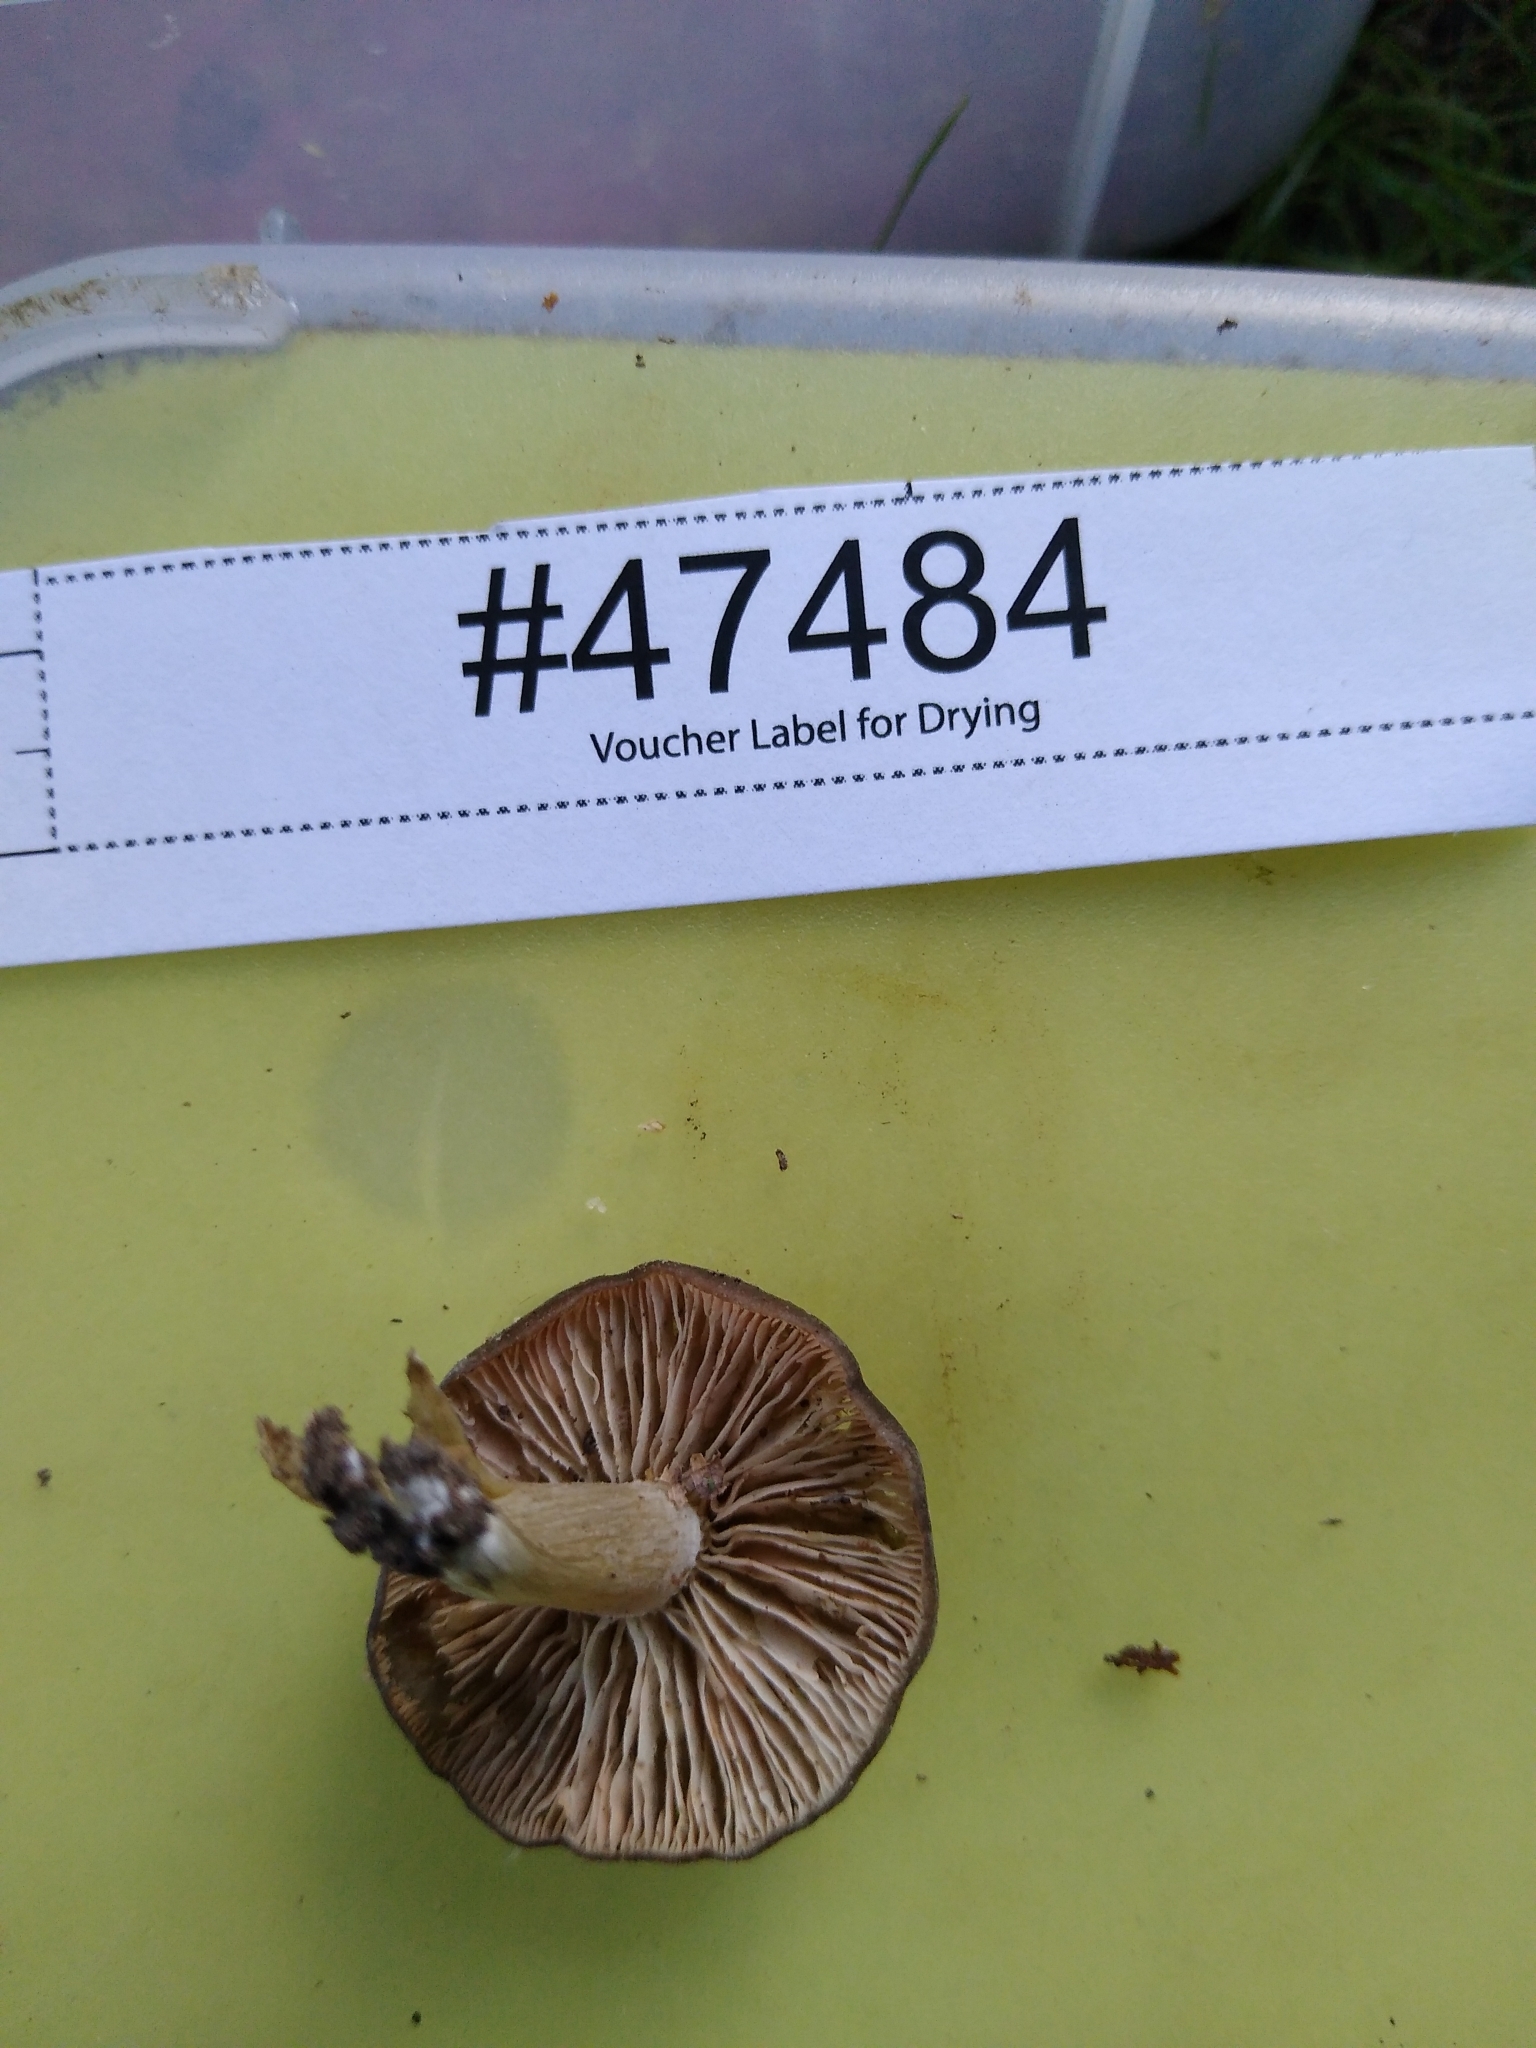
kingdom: Fungi
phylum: Ascomycota
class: Saccharomycetes
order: Saccharomycetales
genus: Teunomyces
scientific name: Teunomyces atbi
